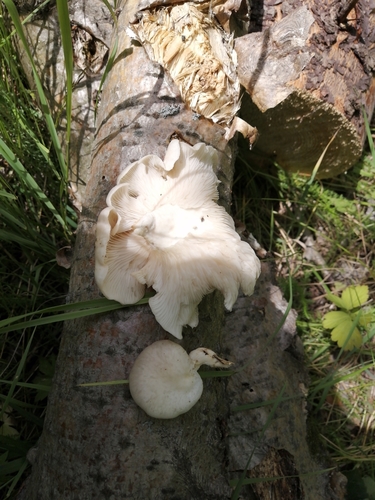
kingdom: Fungi
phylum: Basidiomycota
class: Agaricomycetes
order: Agaricales
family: Pleurotaceae
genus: Pleurotus
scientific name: Pleurotus pulmonarius
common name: Pale oyster
